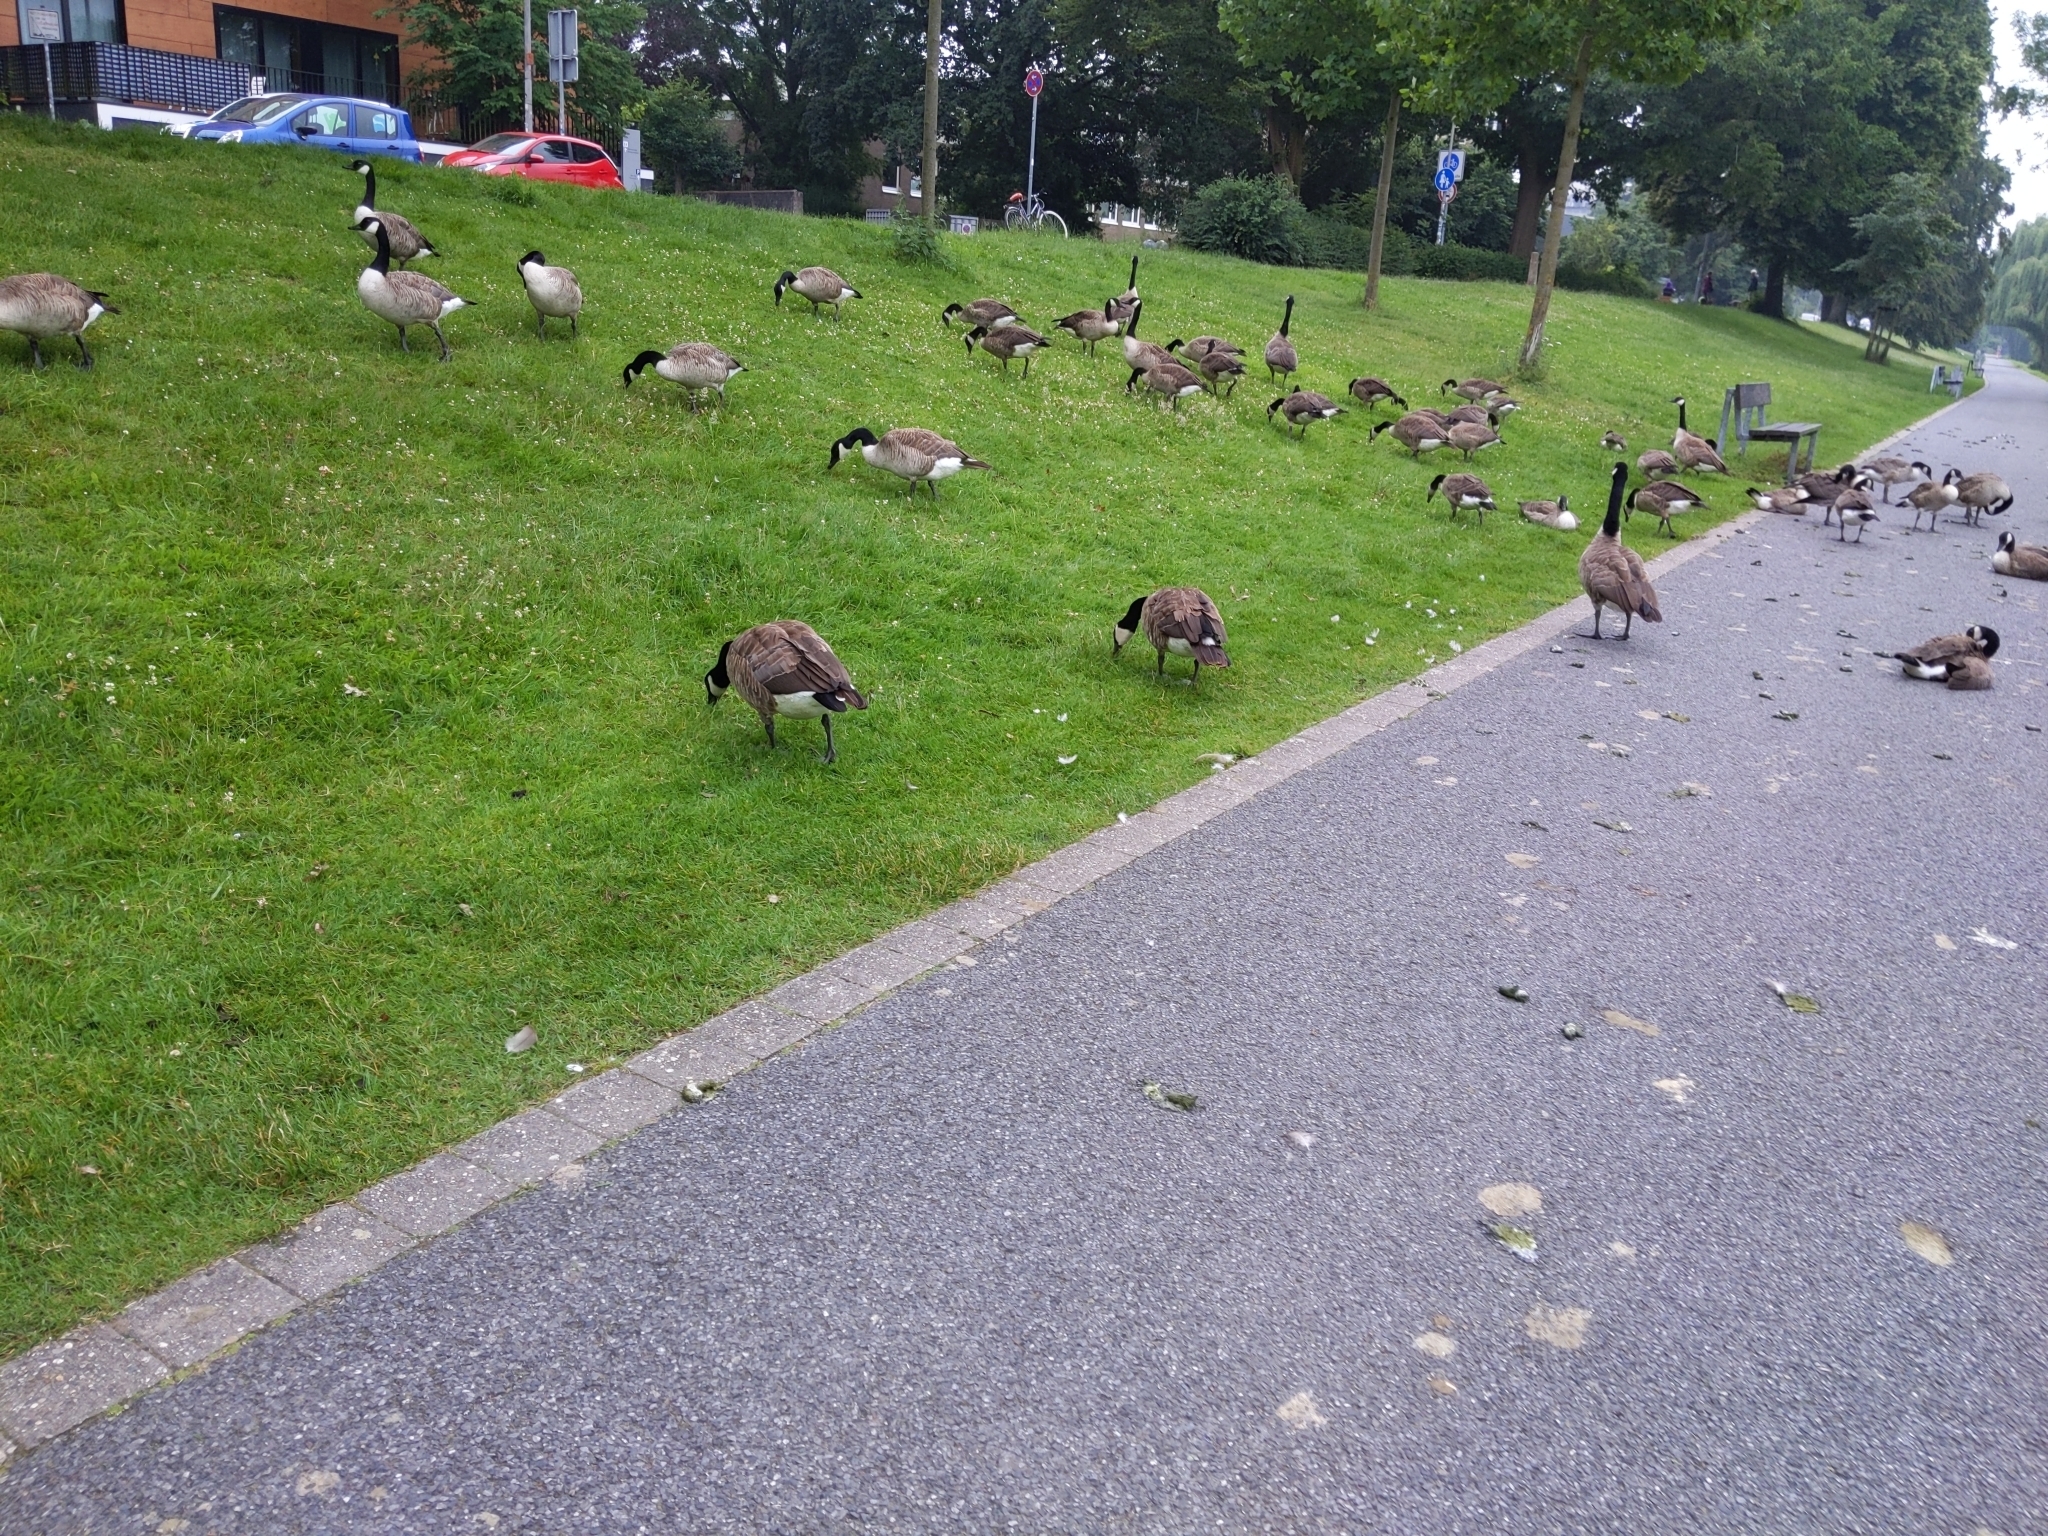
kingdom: Animalia
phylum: Chordata
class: Aves
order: Anseriformes
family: Anatidae
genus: Branta
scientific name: Branta canadensis
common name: Canada goose
